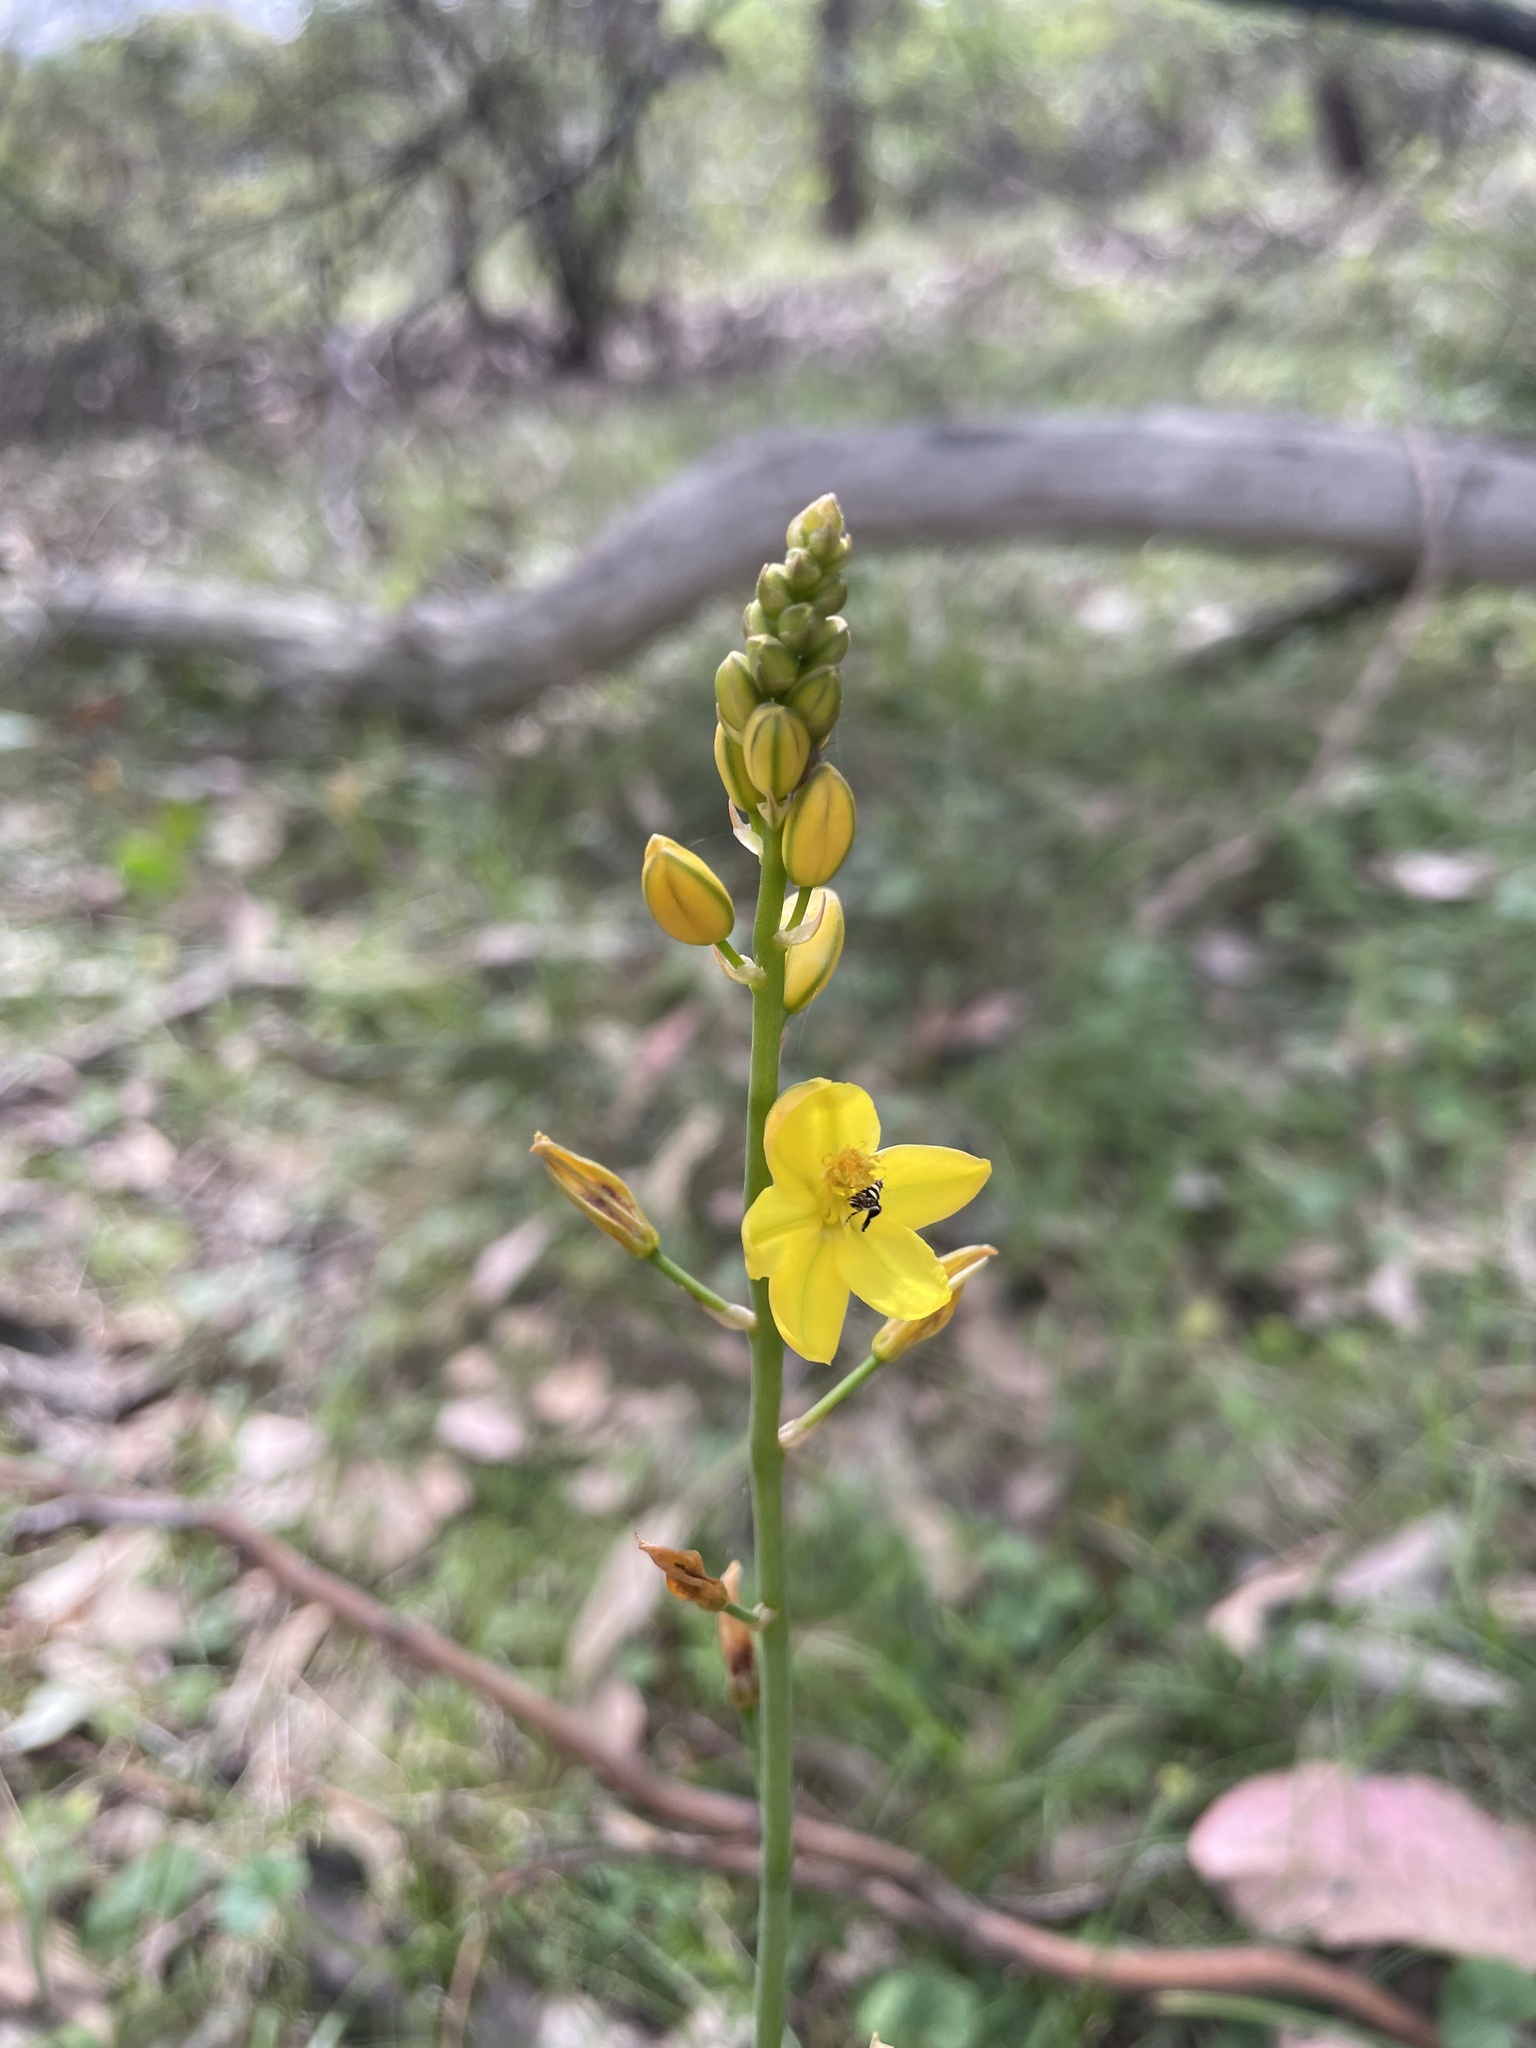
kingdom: Plantae
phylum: Tracheophyta
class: Liliopsida
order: Asparagales
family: Asphodelaceae
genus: Bulbine
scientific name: Bulbine bulbosa
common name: Golden-lily
